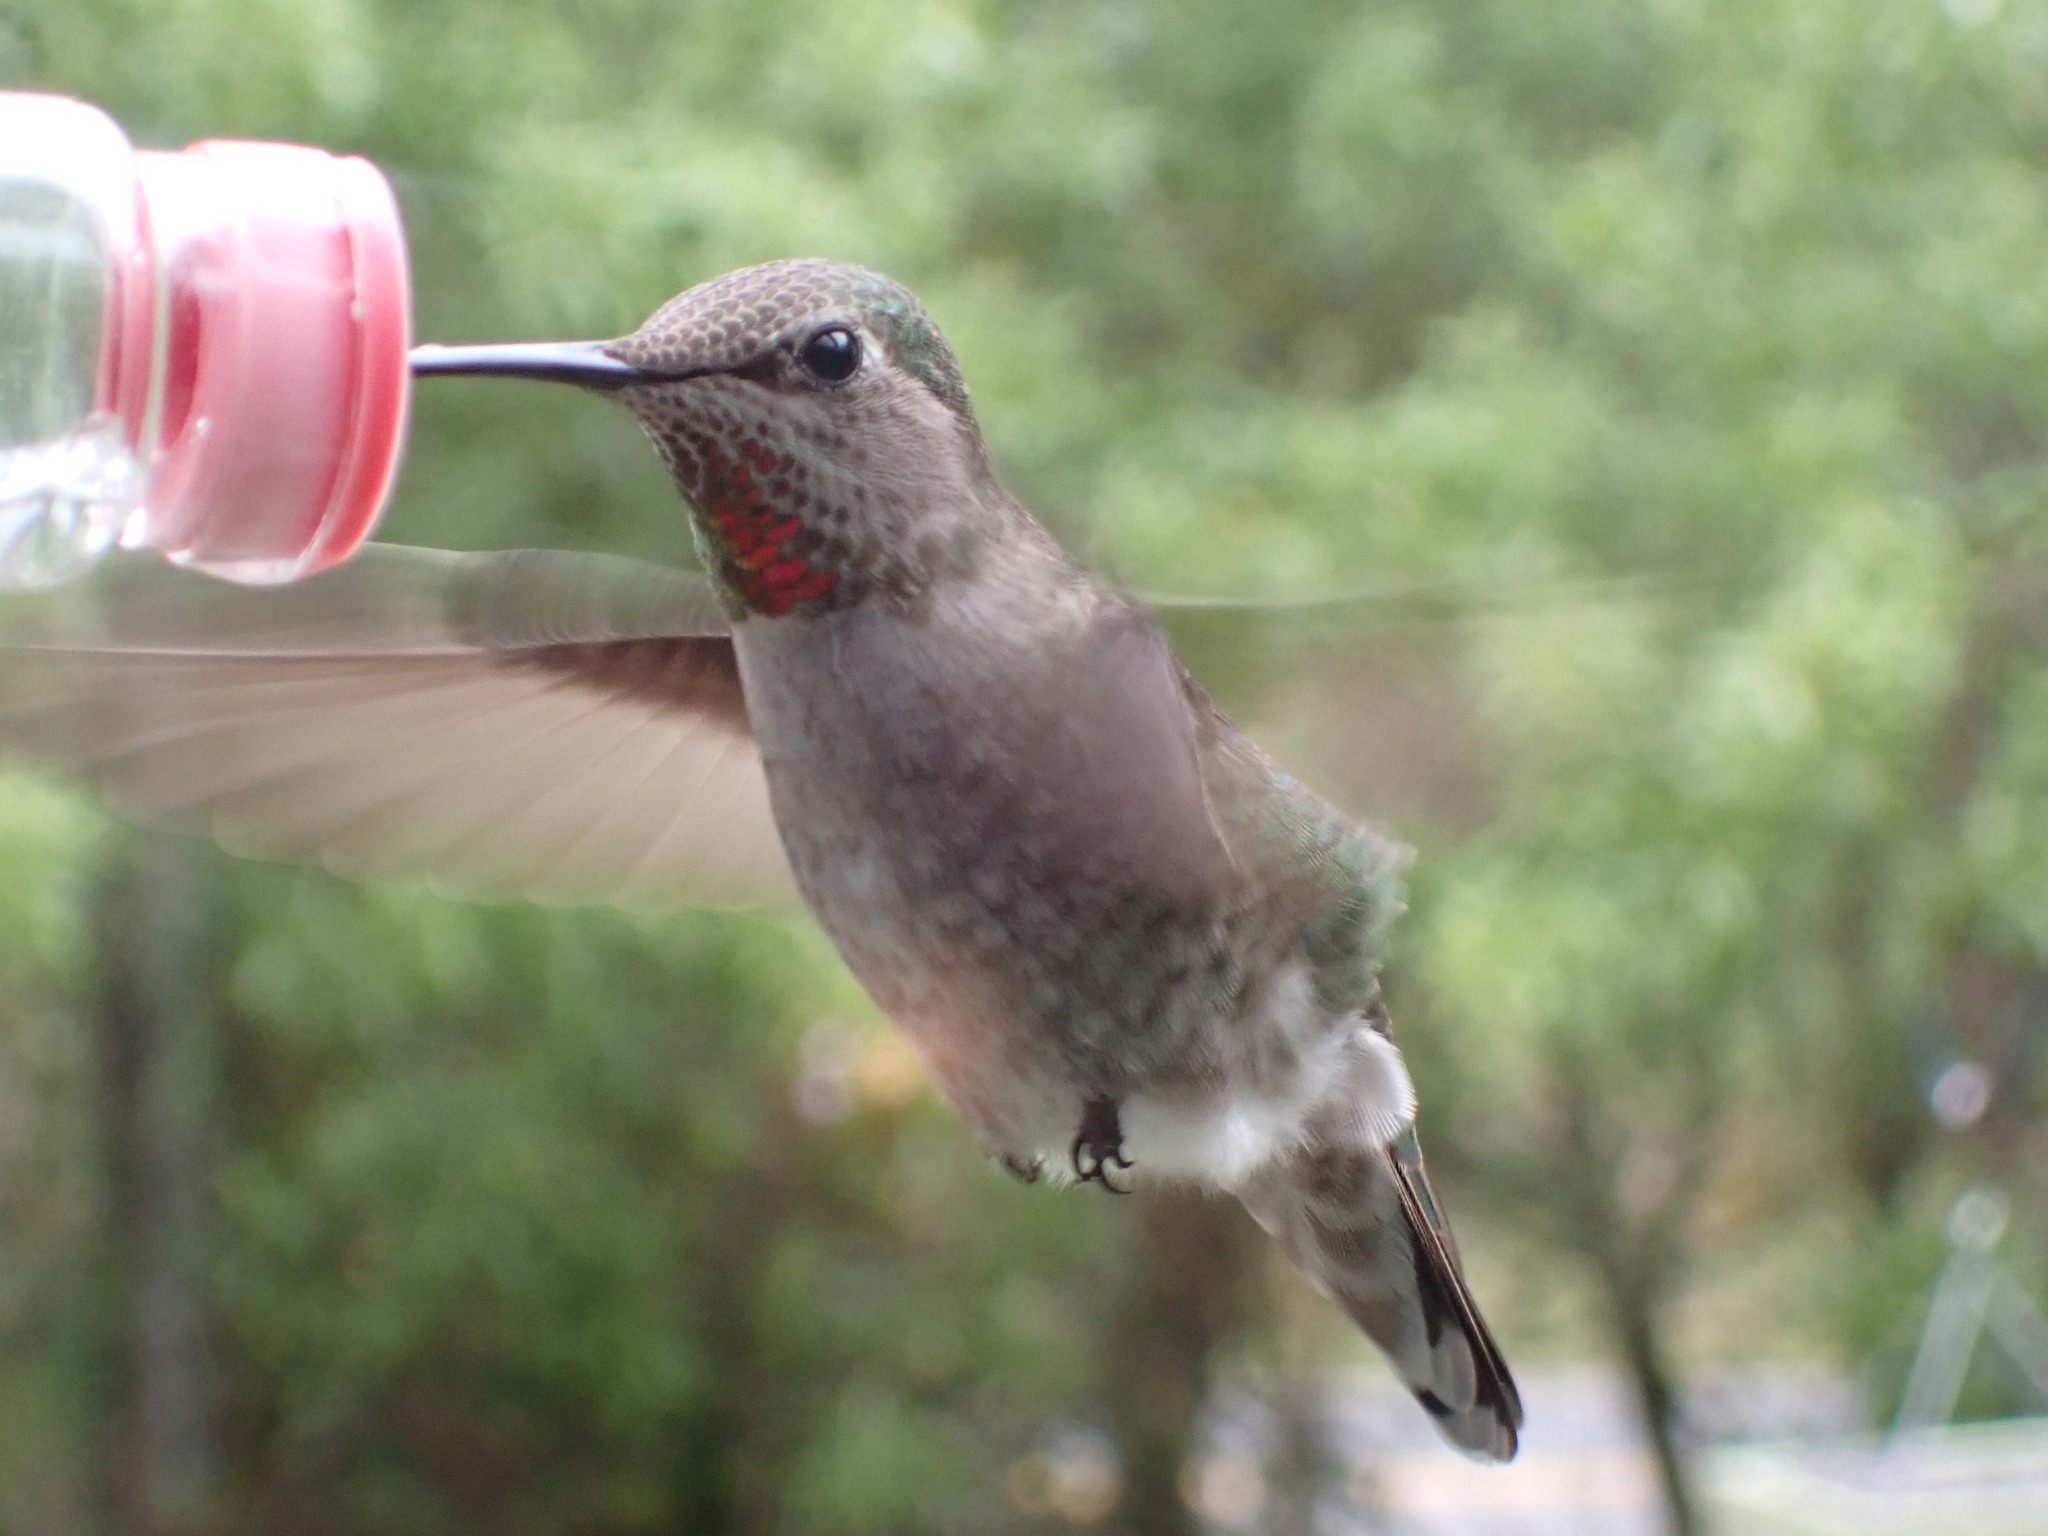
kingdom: Animalia
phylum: Chordata
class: Aves
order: Apodiformes
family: Trochilidae
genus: Calypte
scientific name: Calypte anna
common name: Anna's hummingbird
